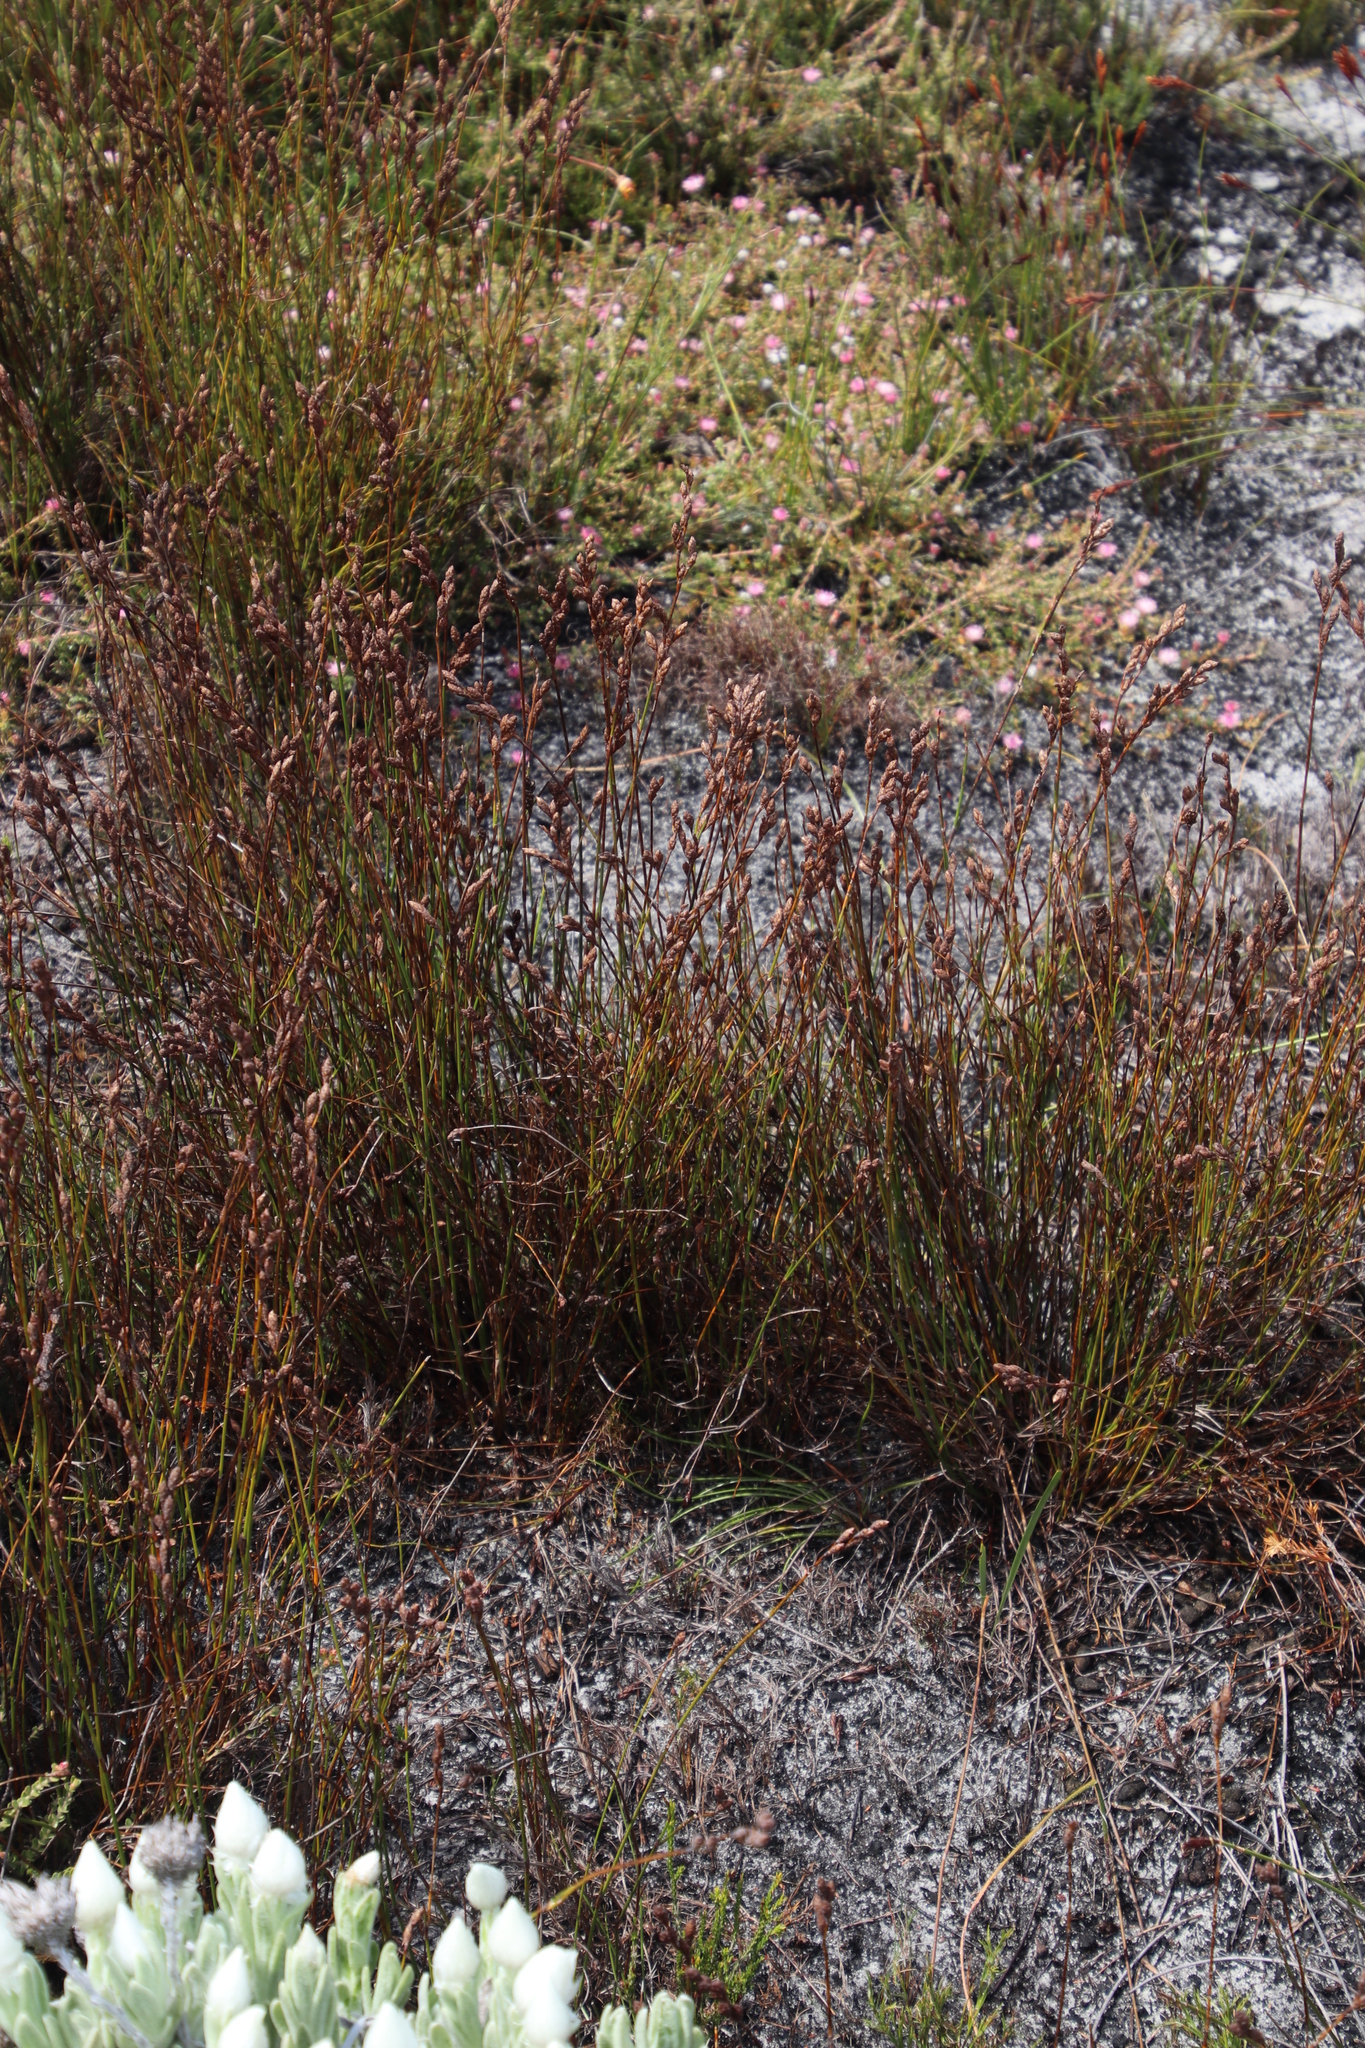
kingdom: Plantae
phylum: Tracheophyta
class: Liliopsida
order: Poales
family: Restionaceae
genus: Restio
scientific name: Restio bifurcus
